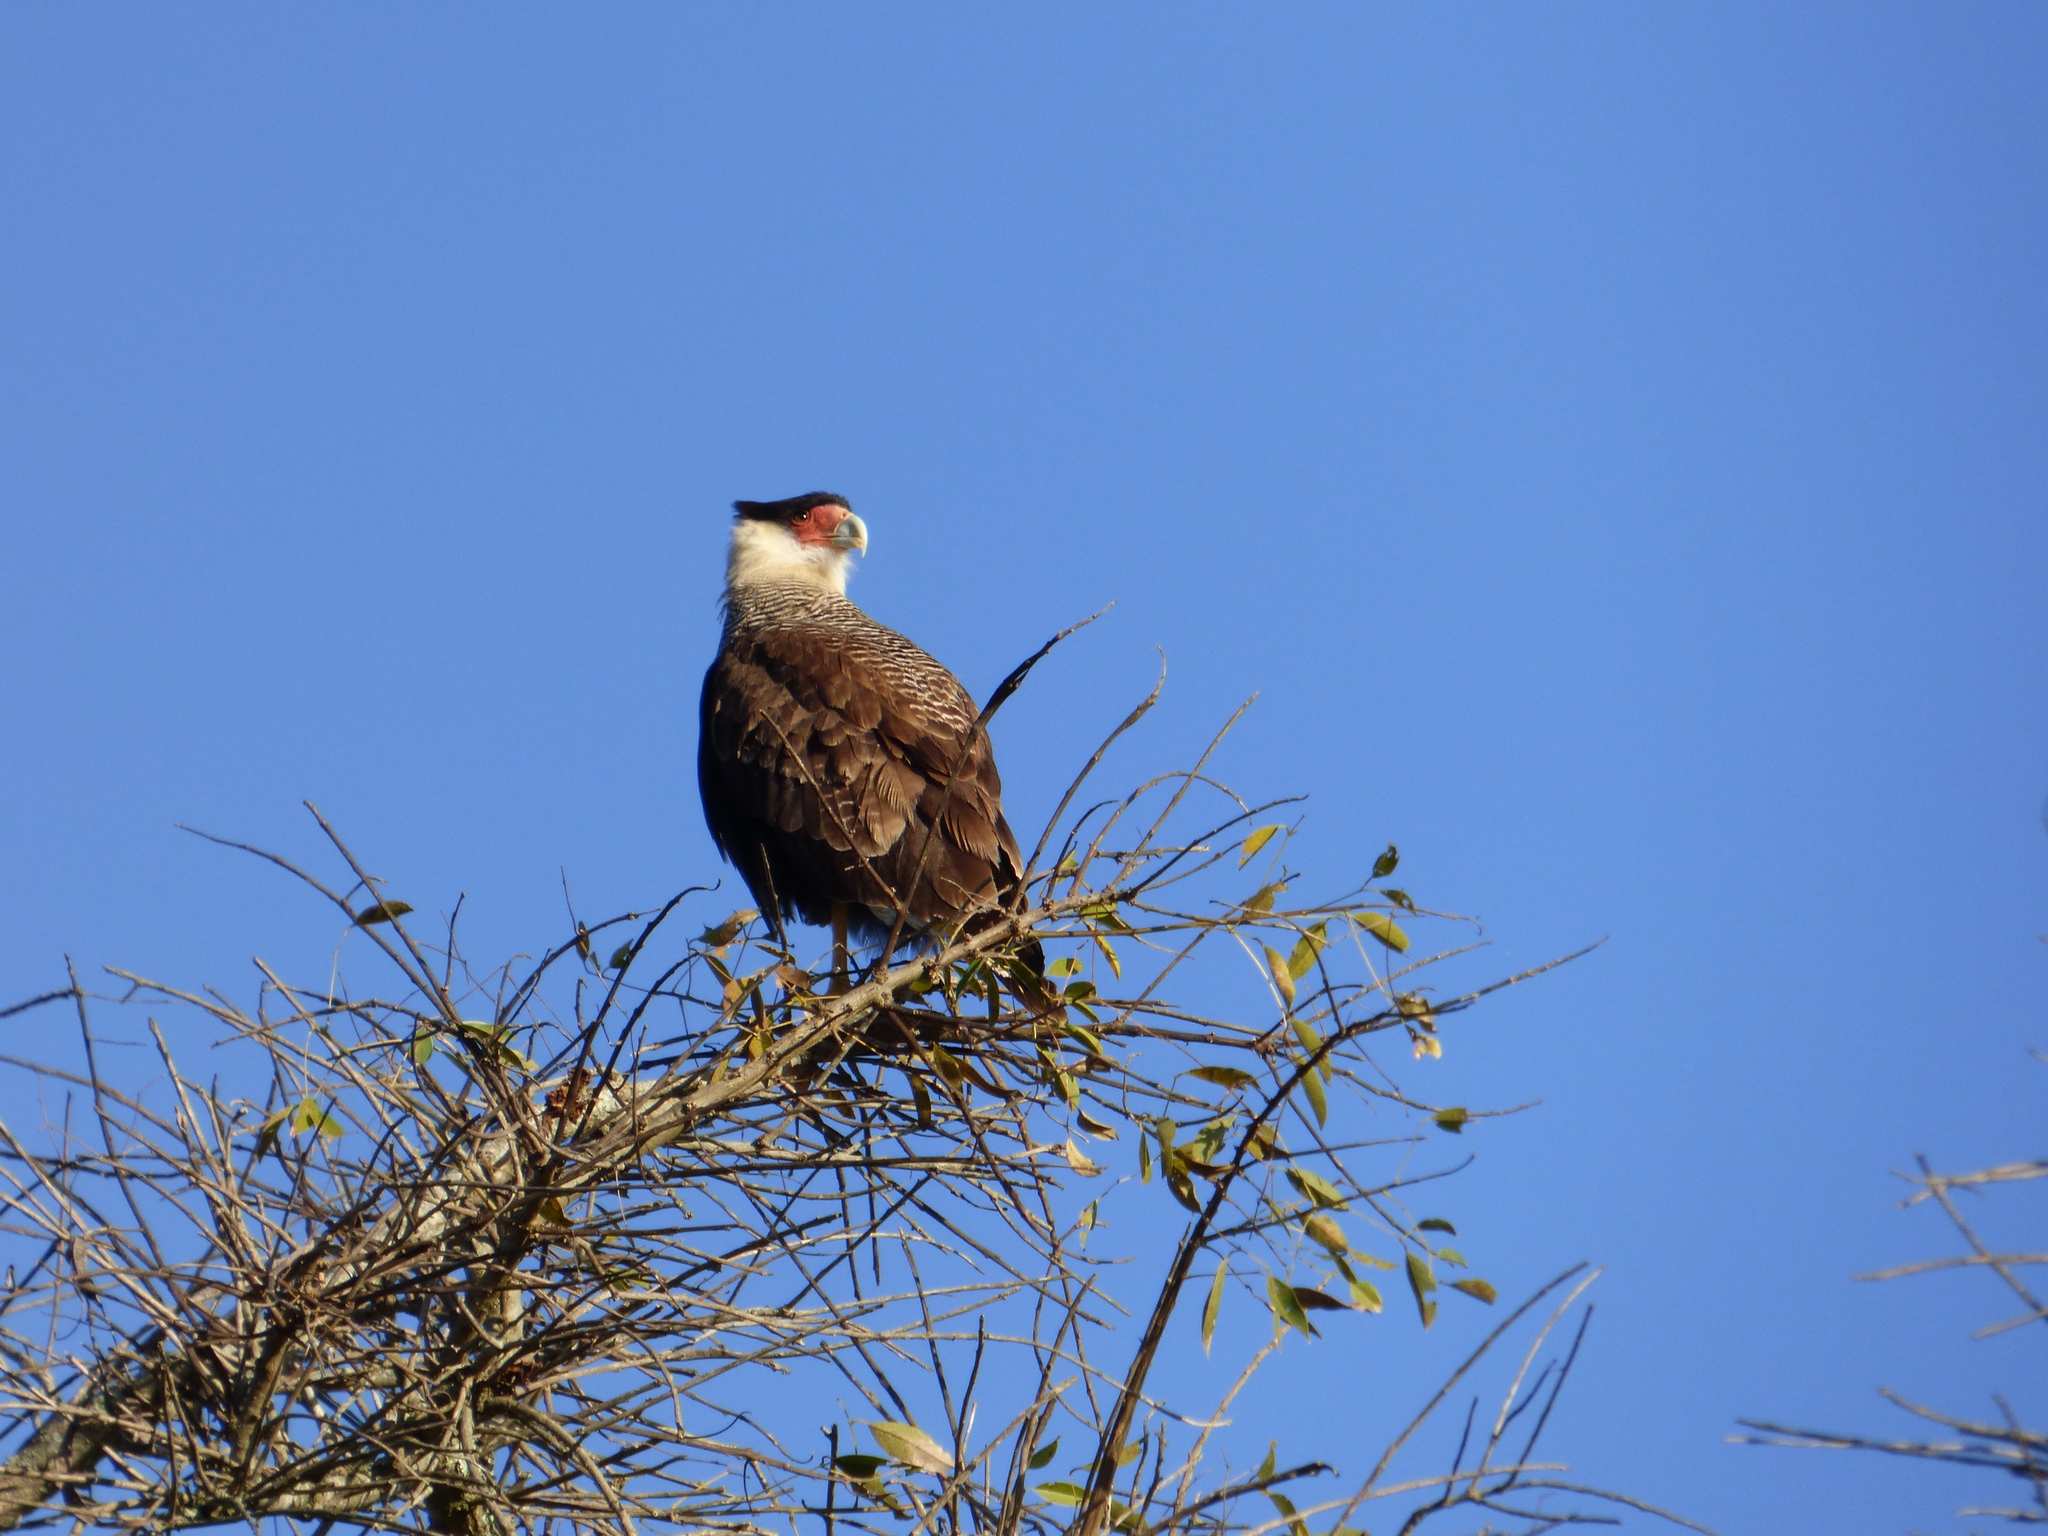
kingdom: Animalia
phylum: Chordata
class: Aves
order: Falconiformes
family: Falconidae
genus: Caracara
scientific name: Caracara plancus
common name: Southern caracara
